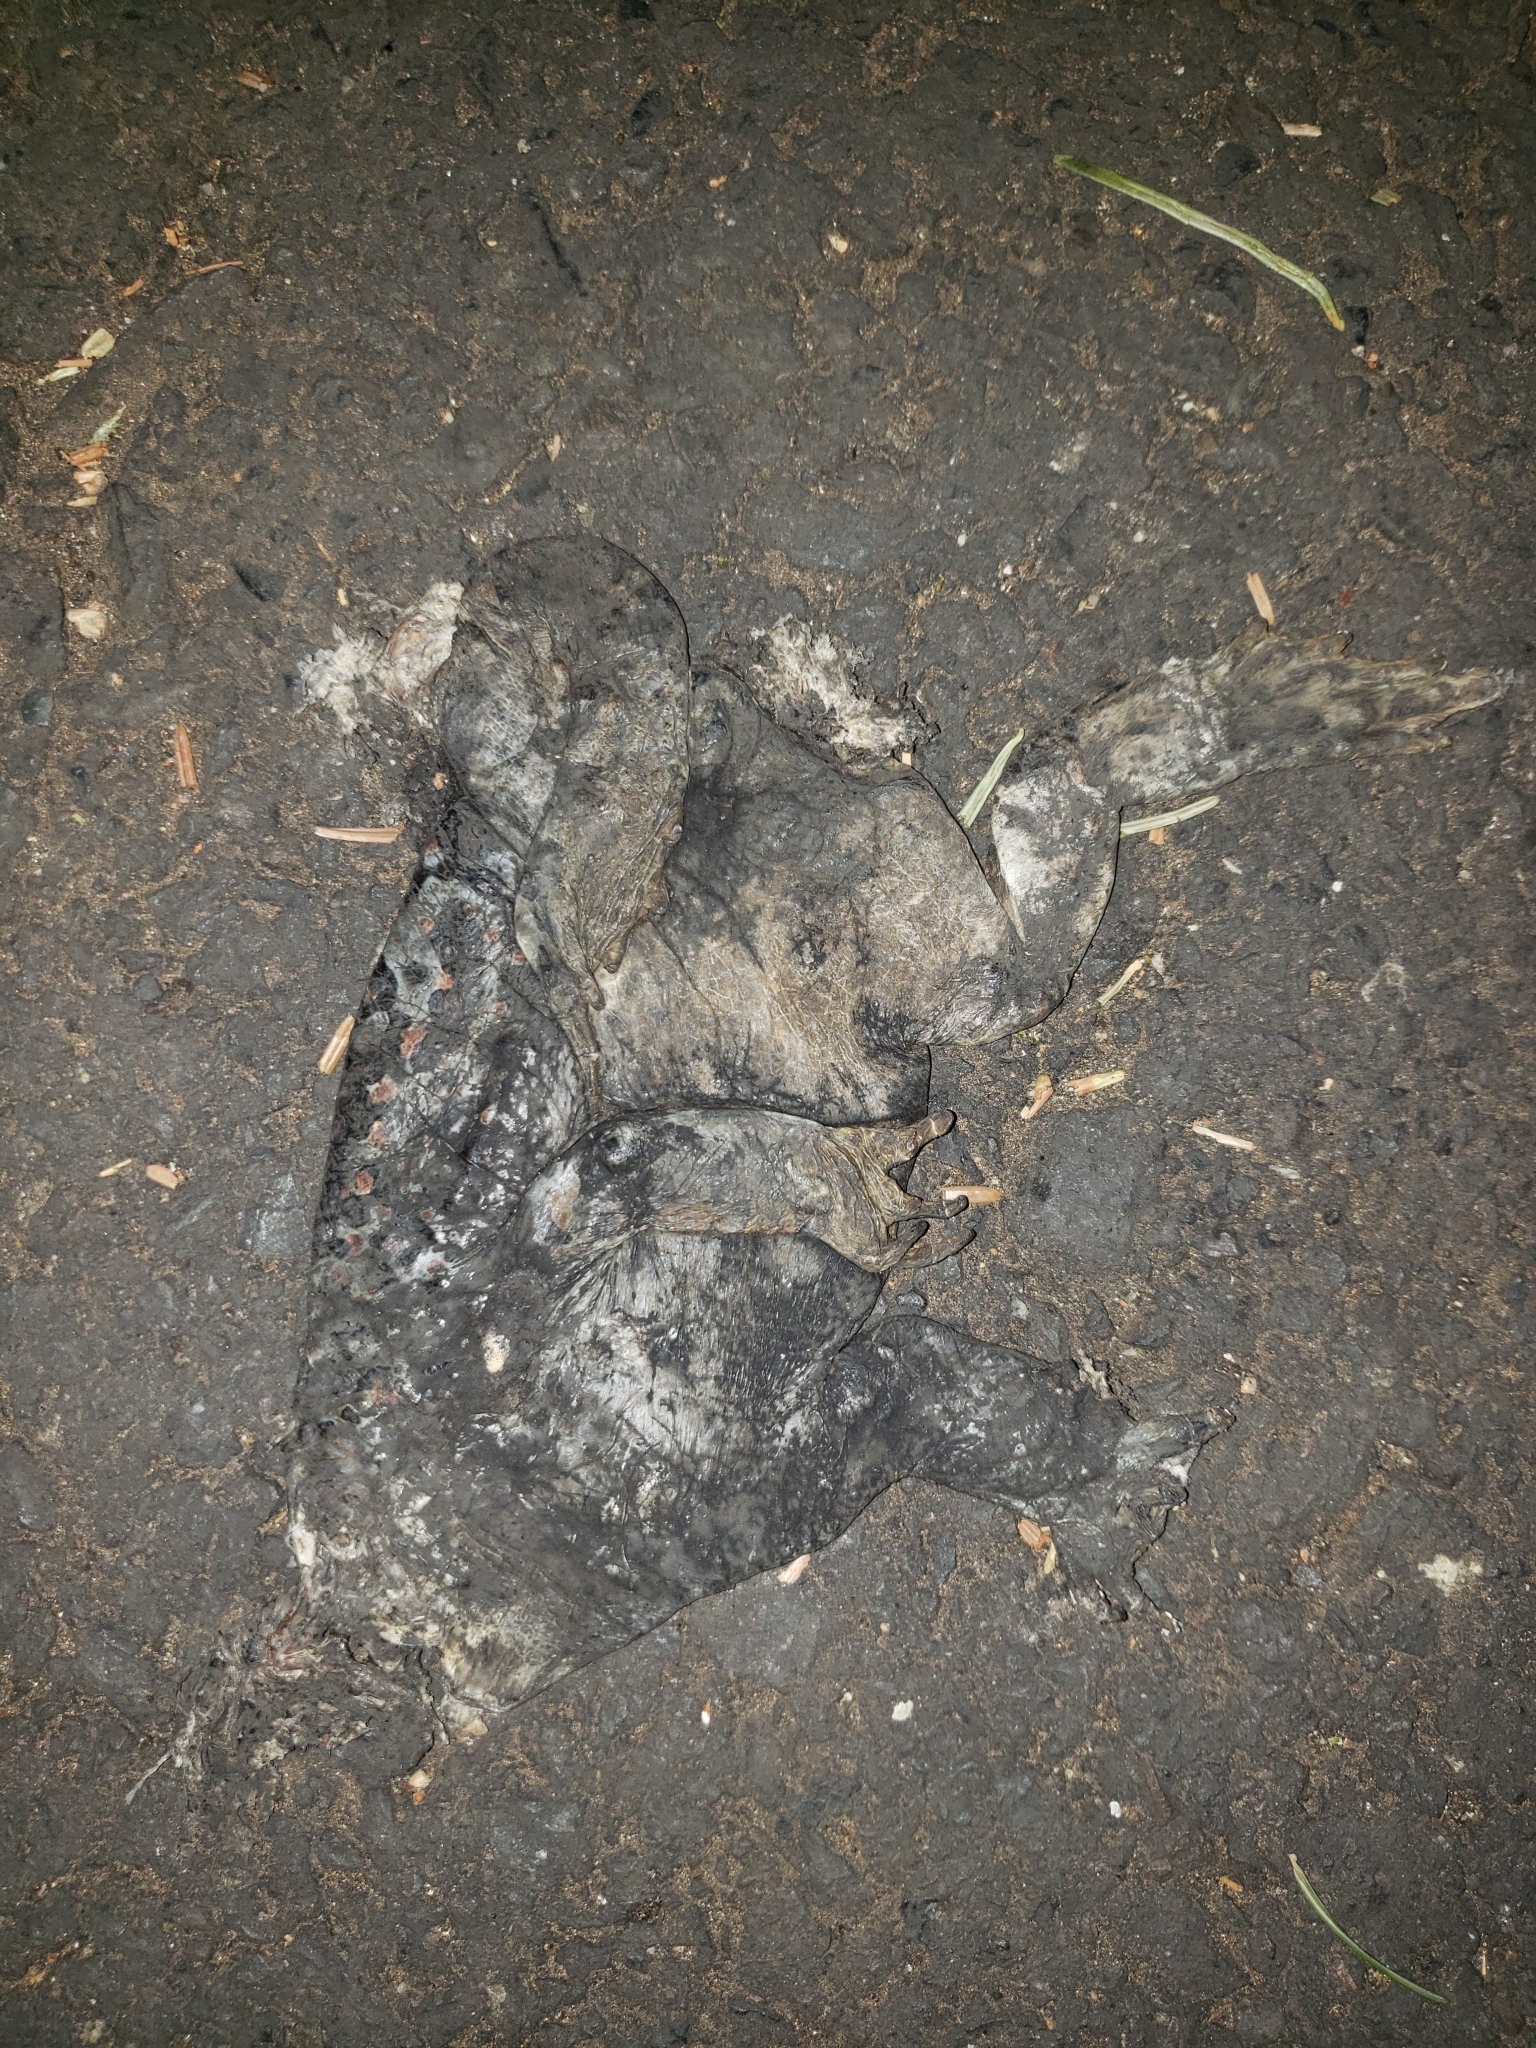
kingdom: Animalia
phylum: Chordata
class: Amphibia
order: Anura
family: Bufonidae
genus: Anaxyrus
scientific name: Anaxyrus boreas
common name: Western toad
